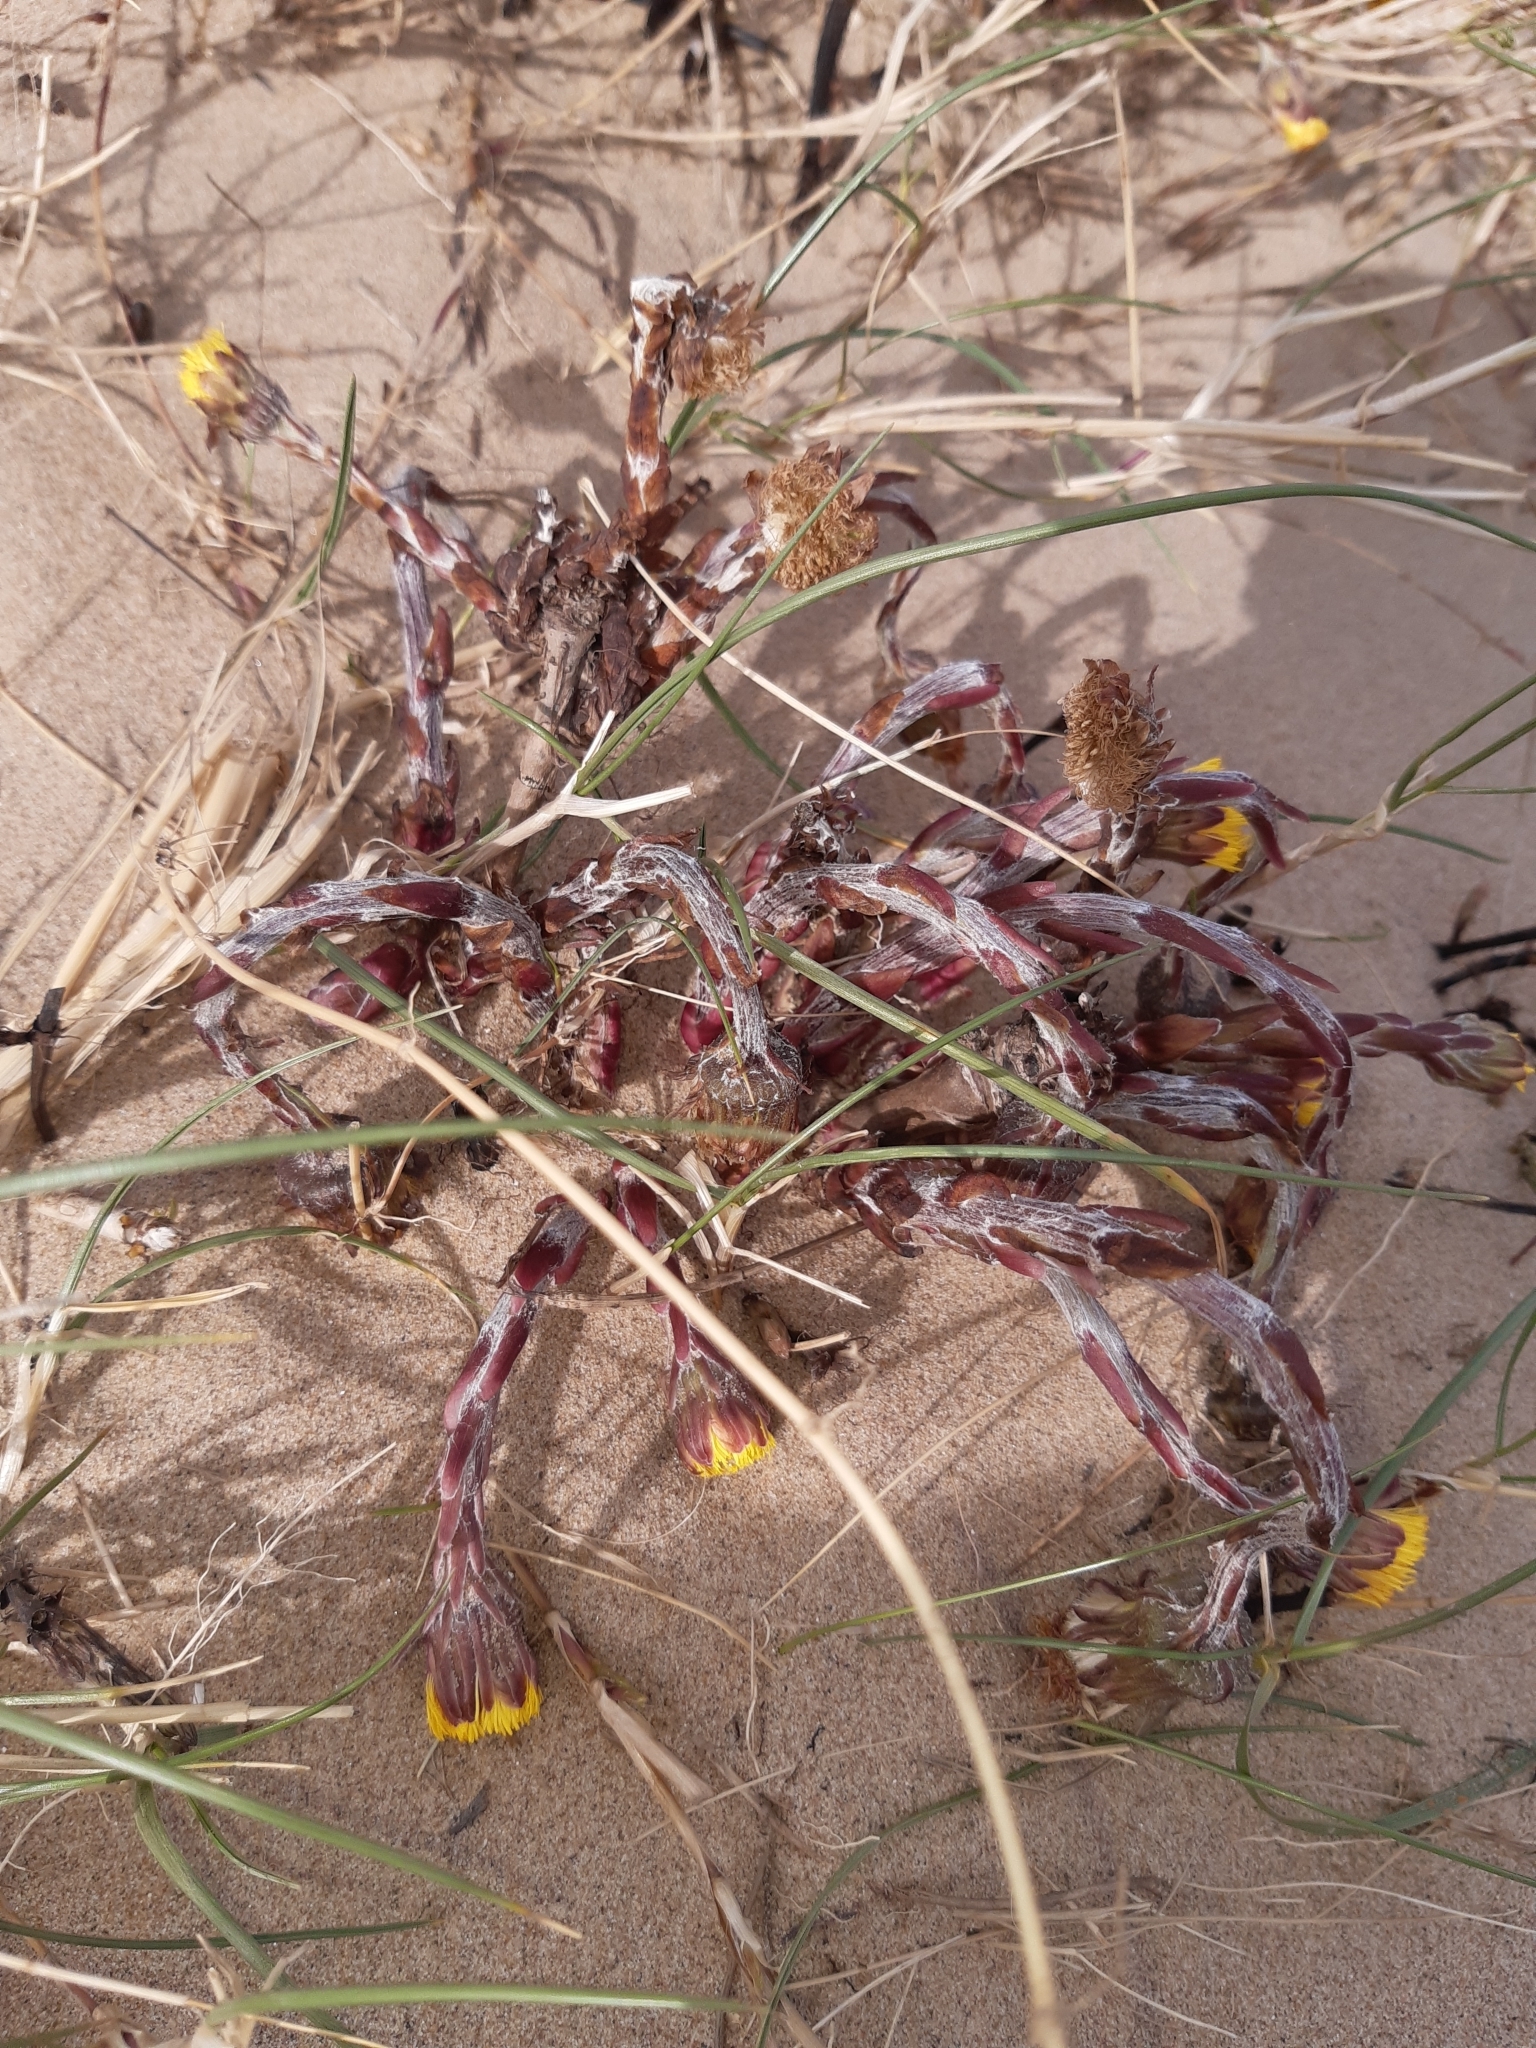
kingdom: Plantae
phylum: Tracheophyta
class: Magnoliopsida
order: Asterales
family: Asteraceae
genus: Tussilago
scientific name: Tussilago farfara
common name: Coltsfoot
